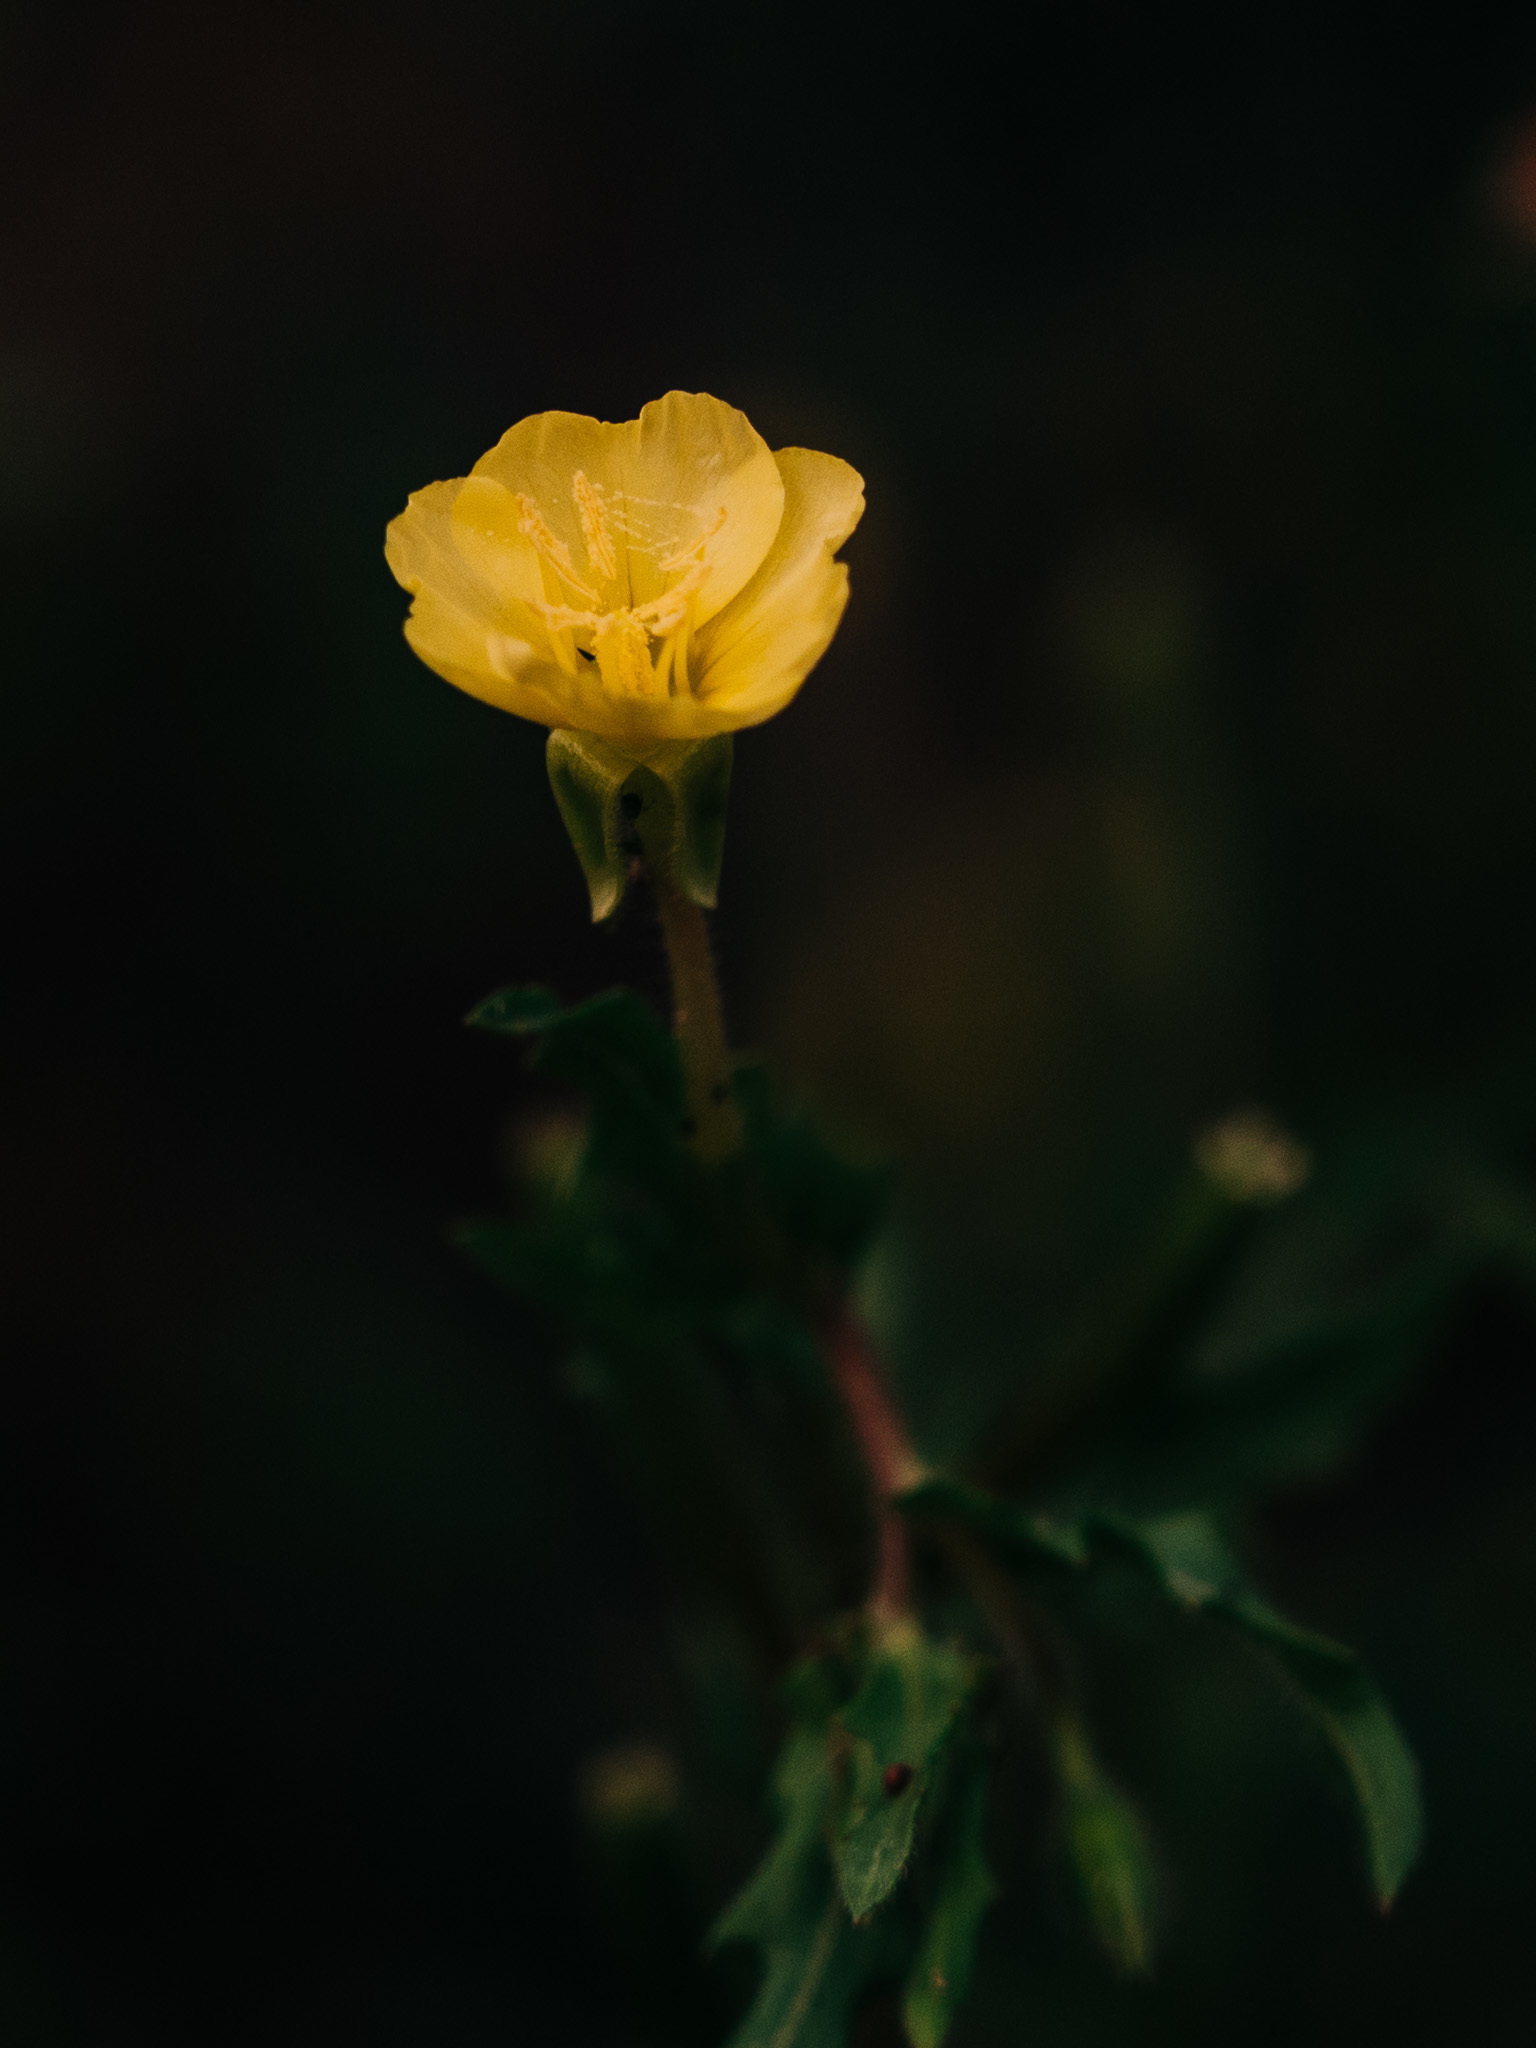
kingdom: Plantae
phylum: Tracheophyta
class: Magnoliopsida
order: Myrtales
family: Onagraceae
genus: Oenothera
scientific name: Oenothera laciniata
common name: Cut-leaved evening-primrose
